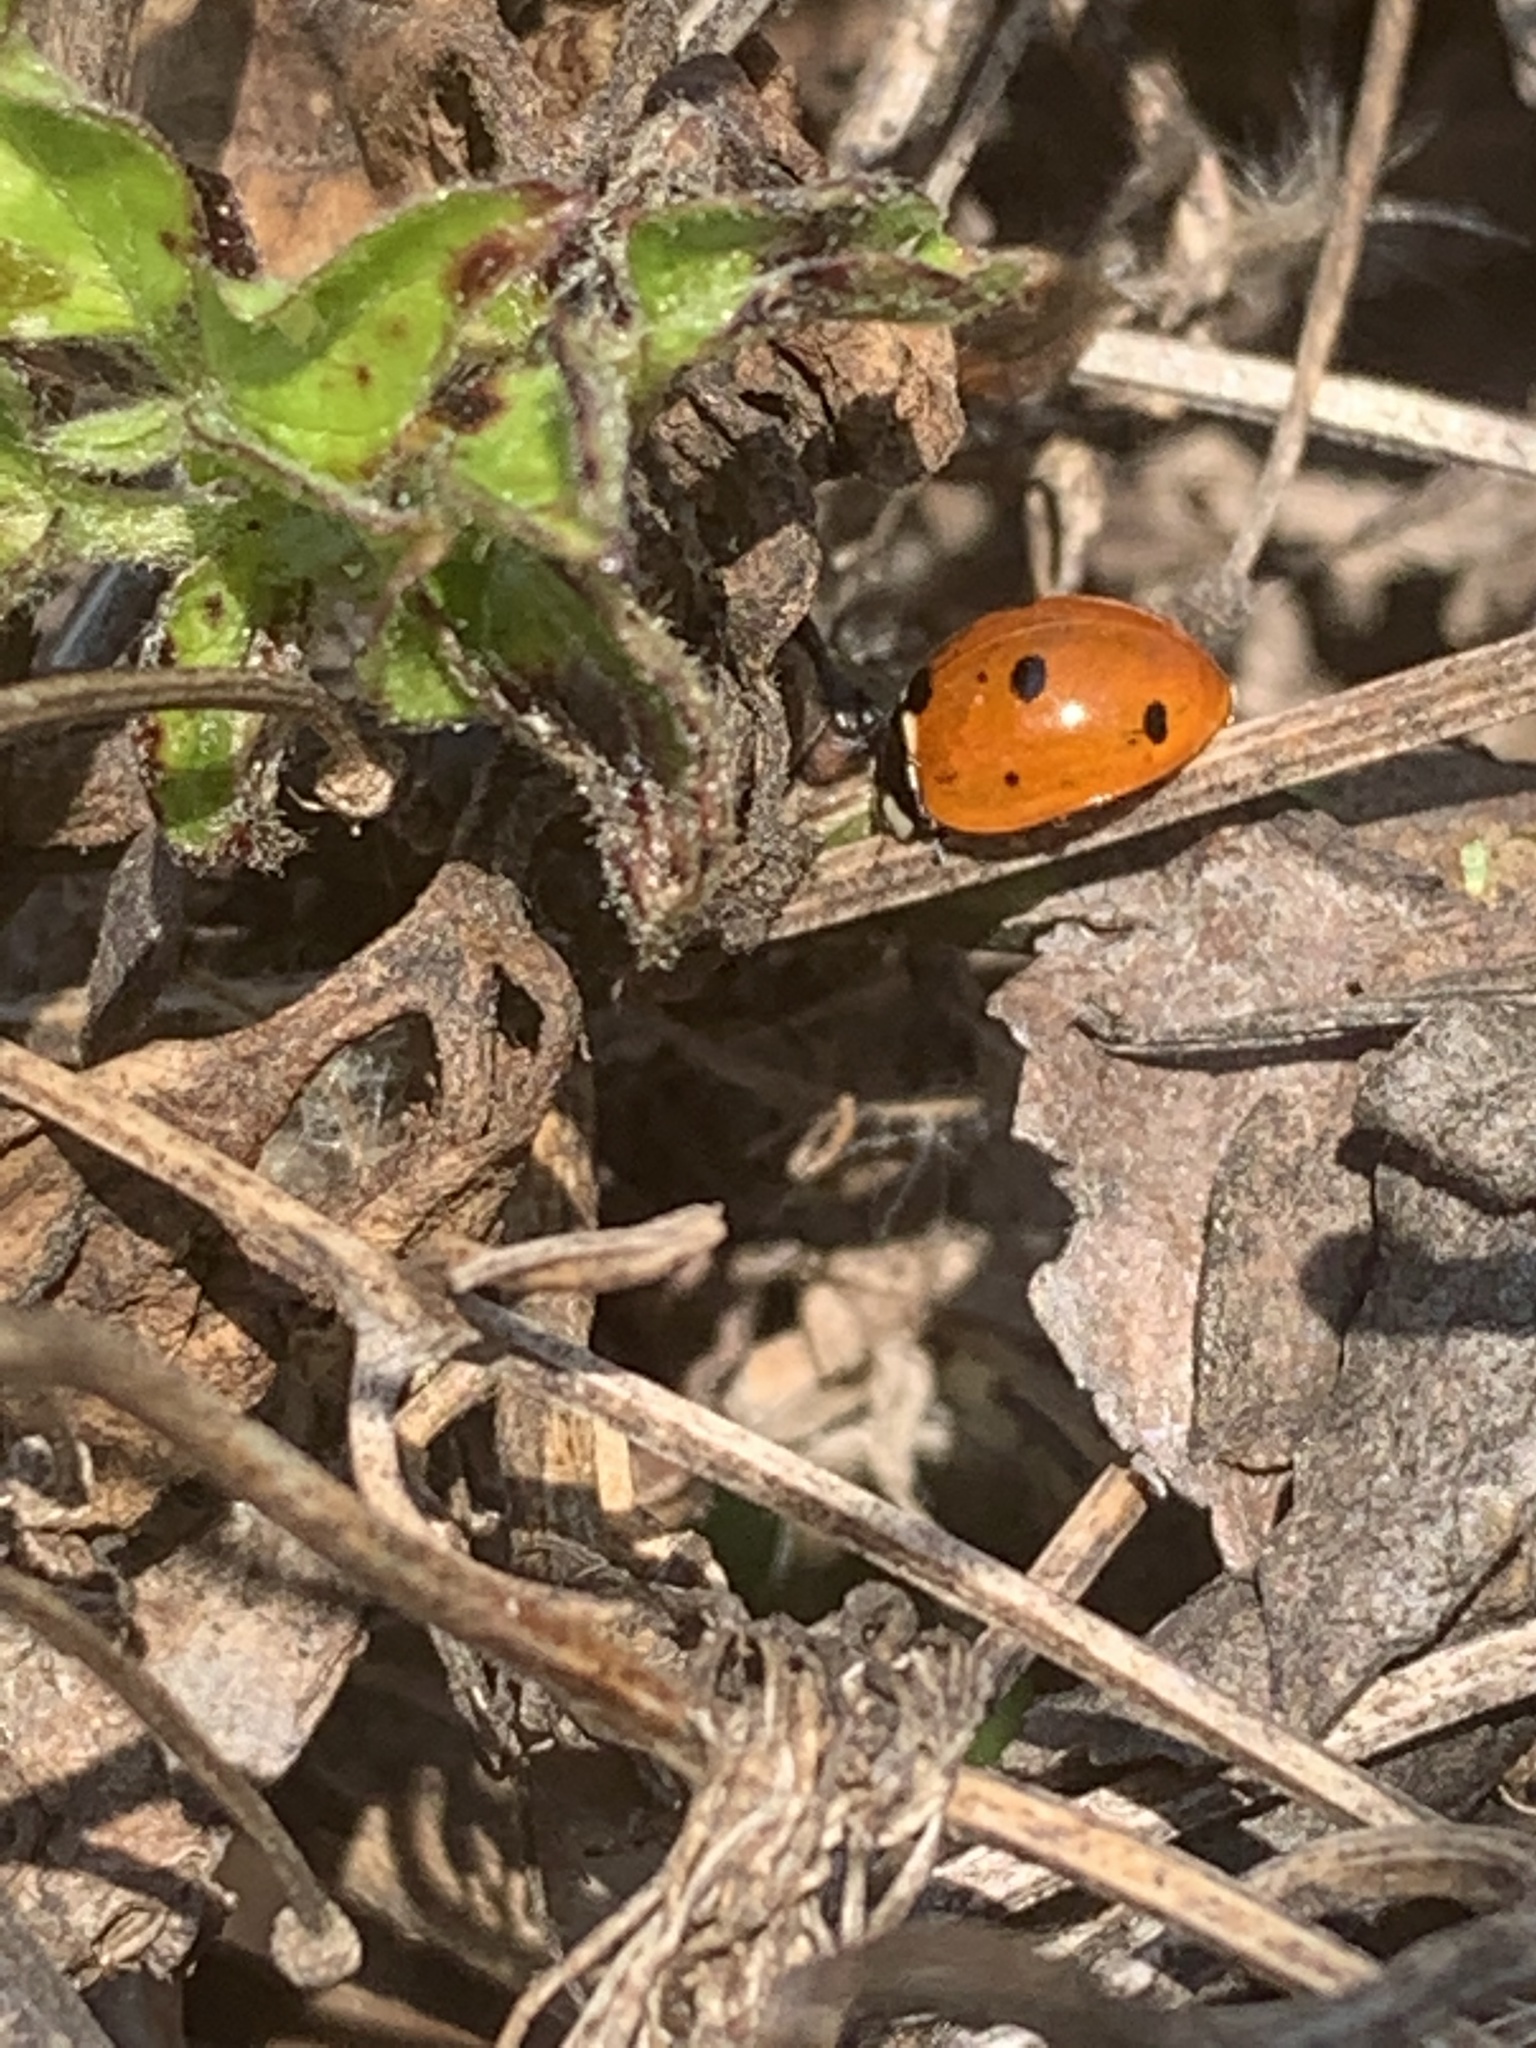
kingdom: Animalia
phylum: Arthropoda
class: Insecta
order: Coleoptera
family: Coccinellidae
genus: Coccinella
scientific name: Coccinella septempunctata
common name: Sevenspotted lady beetle
